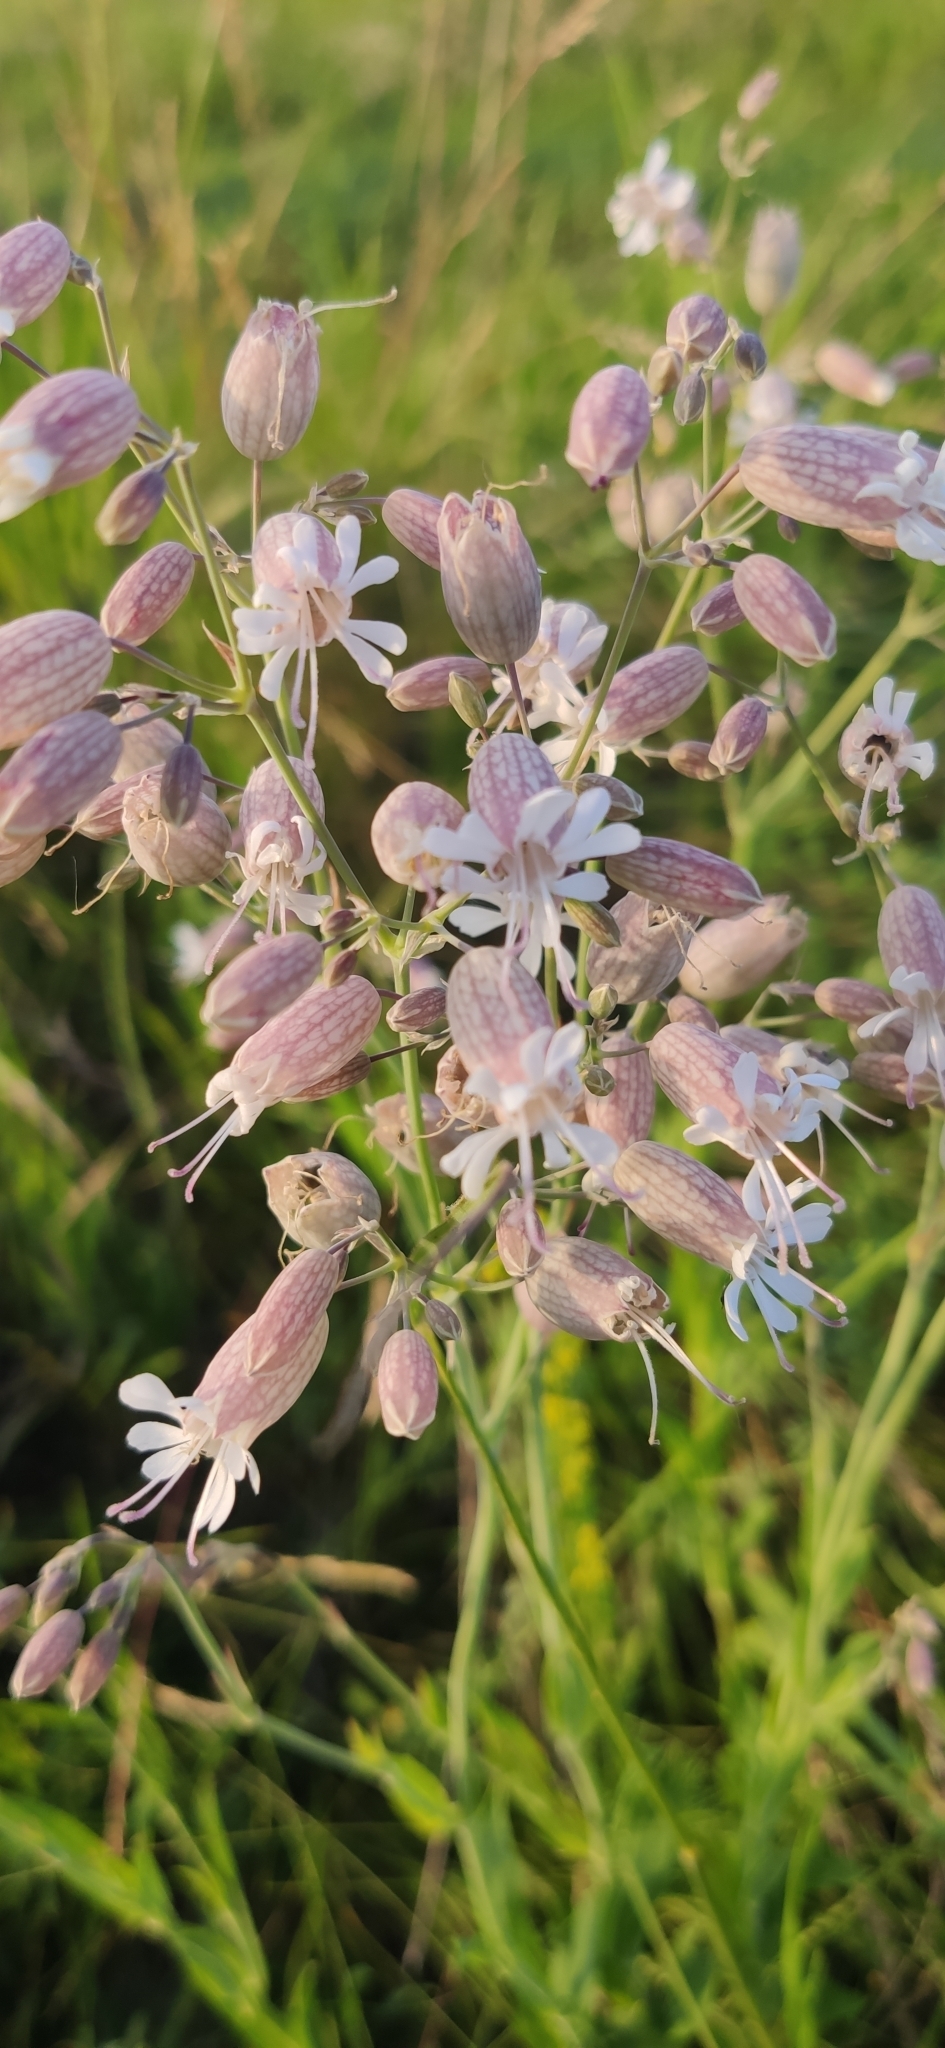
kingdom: Plantae
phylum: Tracheophyta
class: Magnoliopsida
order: Caryophyllales
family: Caryophyllaceae
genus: Silene
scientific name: Silene vulgaris
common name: Bladder campion
